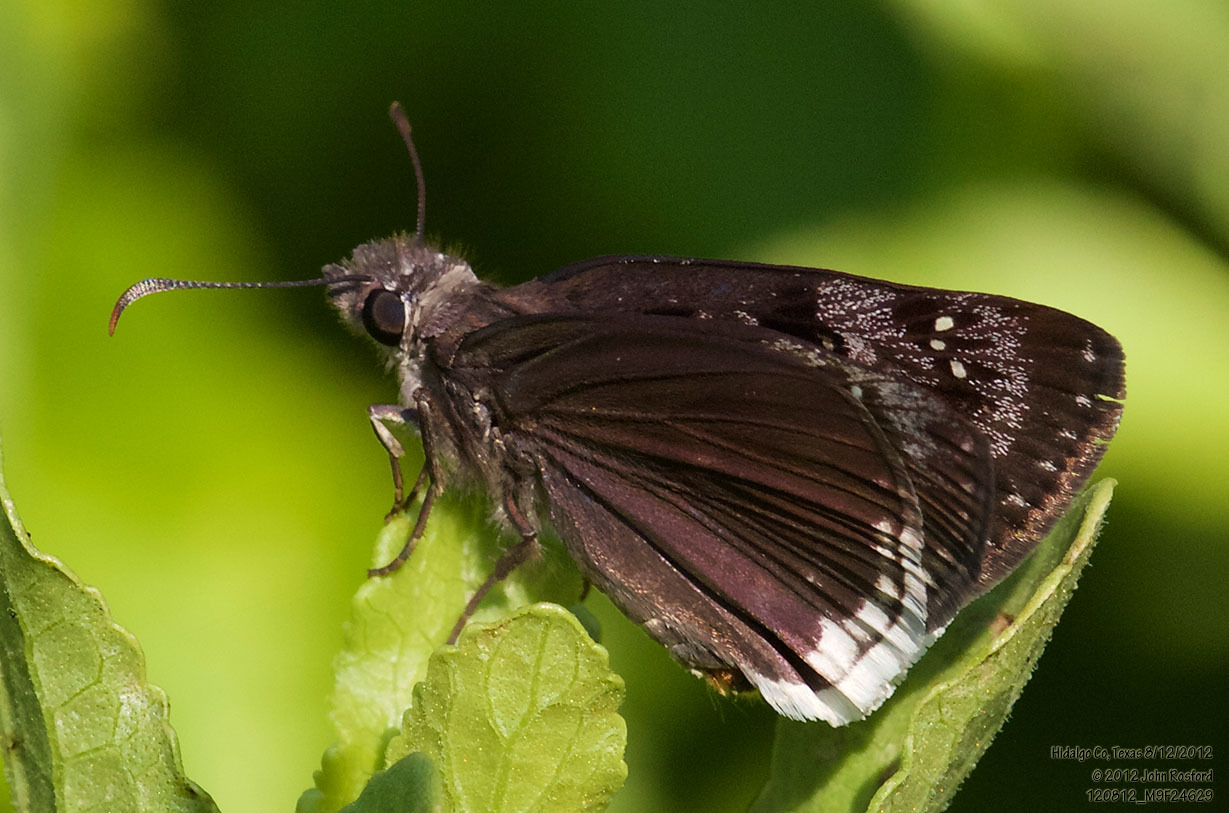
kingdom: Animalia
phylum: Arthropoda
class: Insecta
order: Lepidoptera
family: Hesperiidae
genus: Erynnis
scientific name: Erynnis tristis
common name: Mournful duskywing
